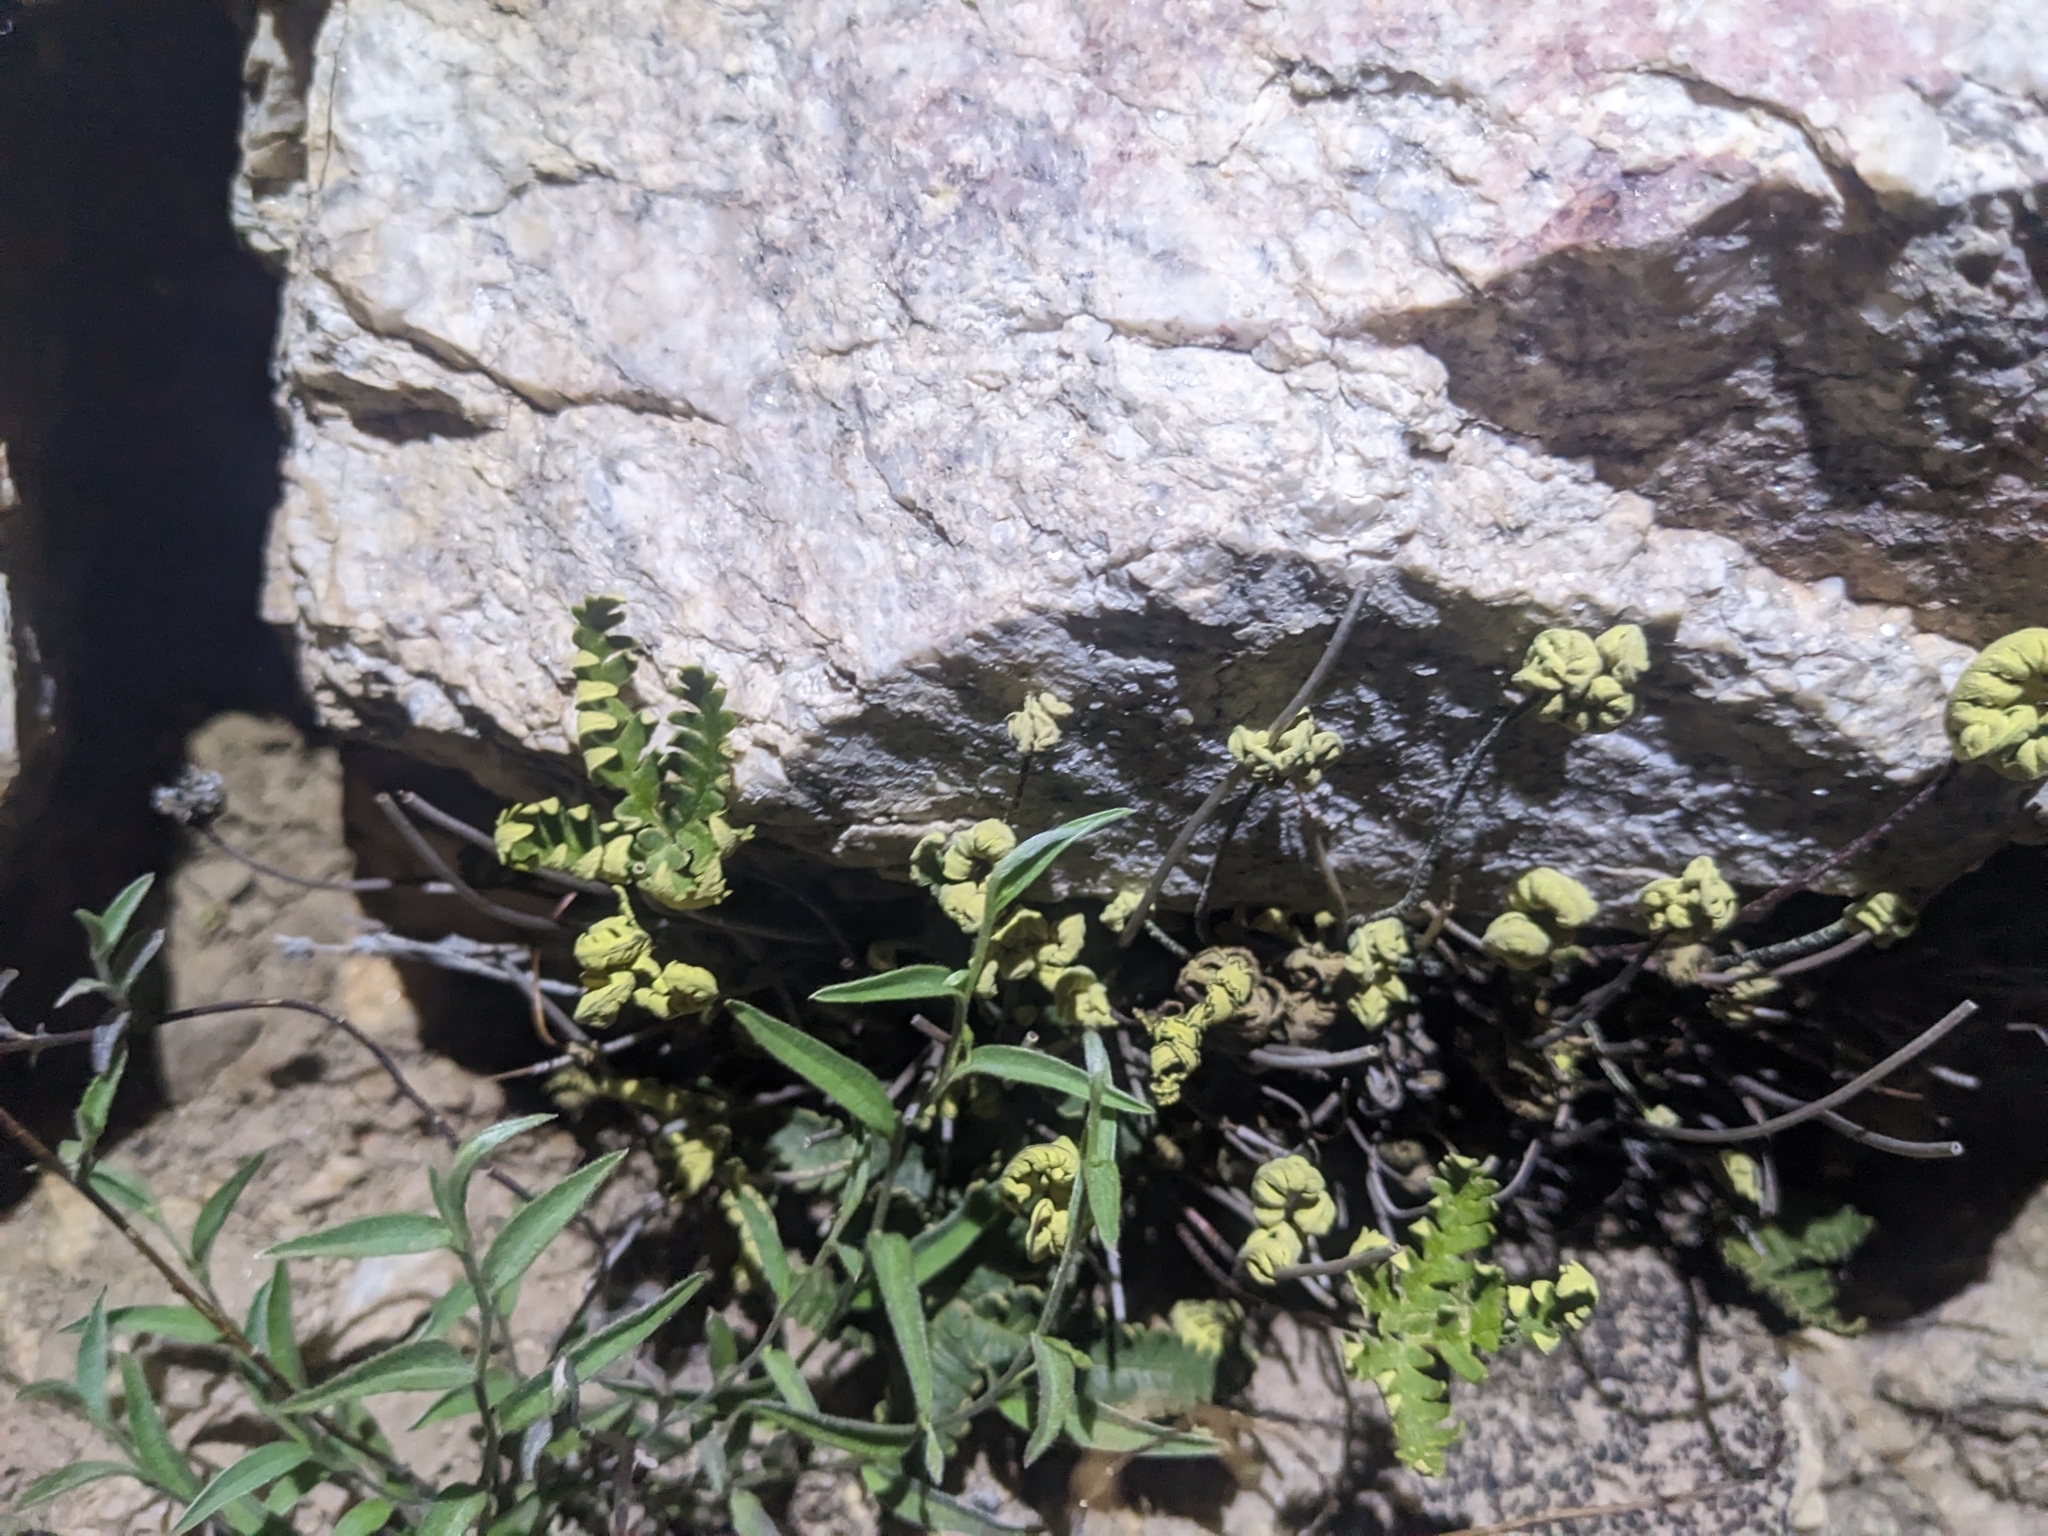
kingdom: Plantae
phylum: Tracheophyta
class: Polypodiopsida
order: Polypodiales
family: Pteridaceae
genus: Notholaena
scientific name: Notholaena standleyi
